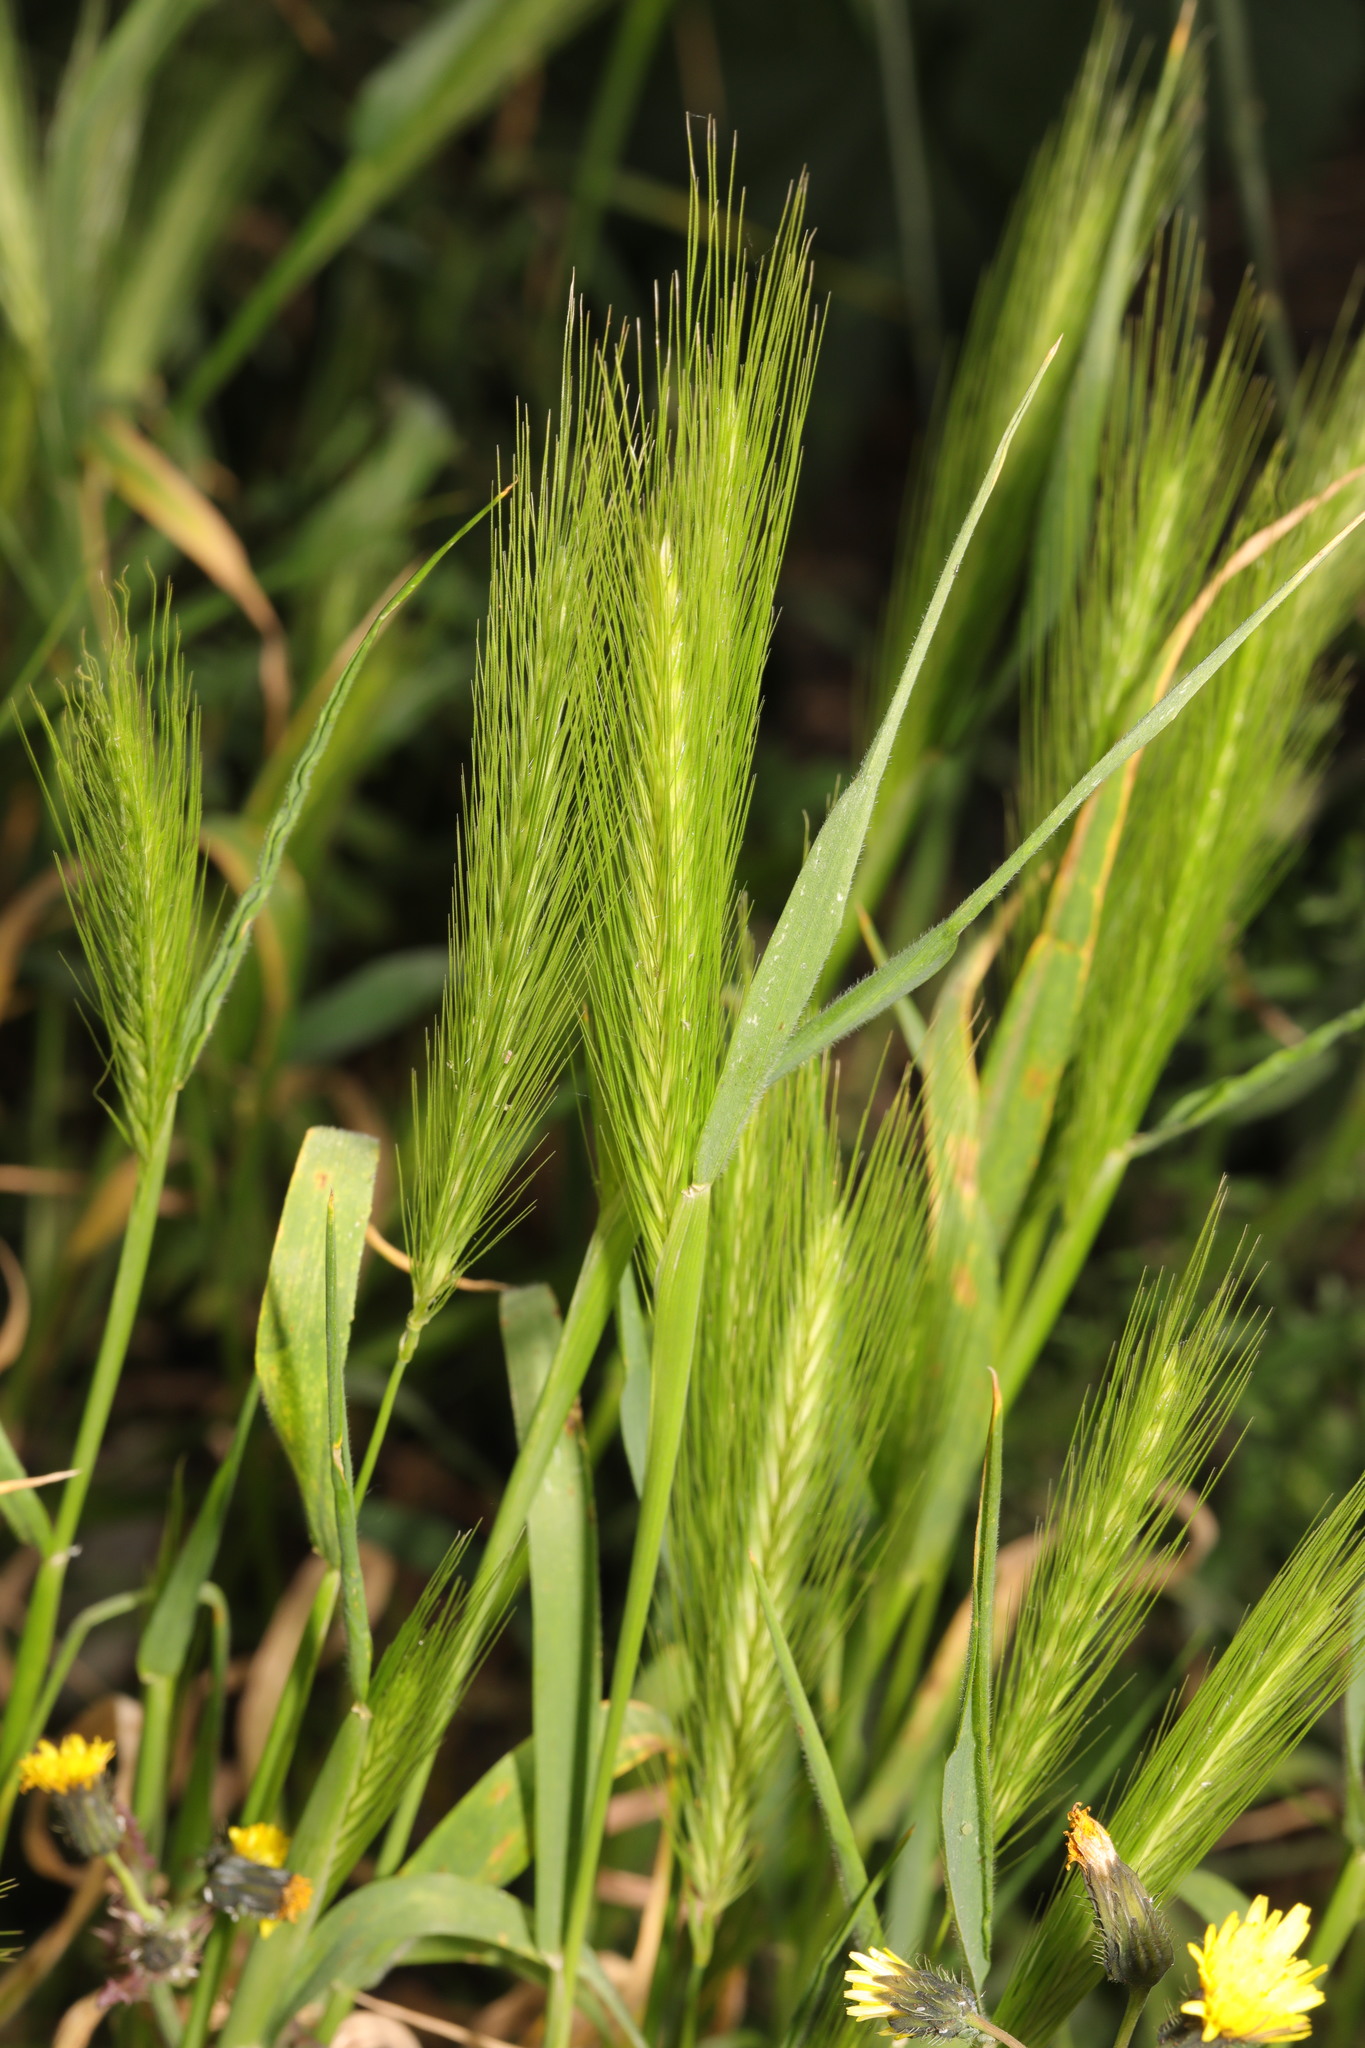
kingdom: Plantae
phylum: Tracheophyta
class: Liliopsida
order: Poales
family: Poaceae
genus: Hordeum
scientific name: Hordeum murinum
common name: Wall barley
